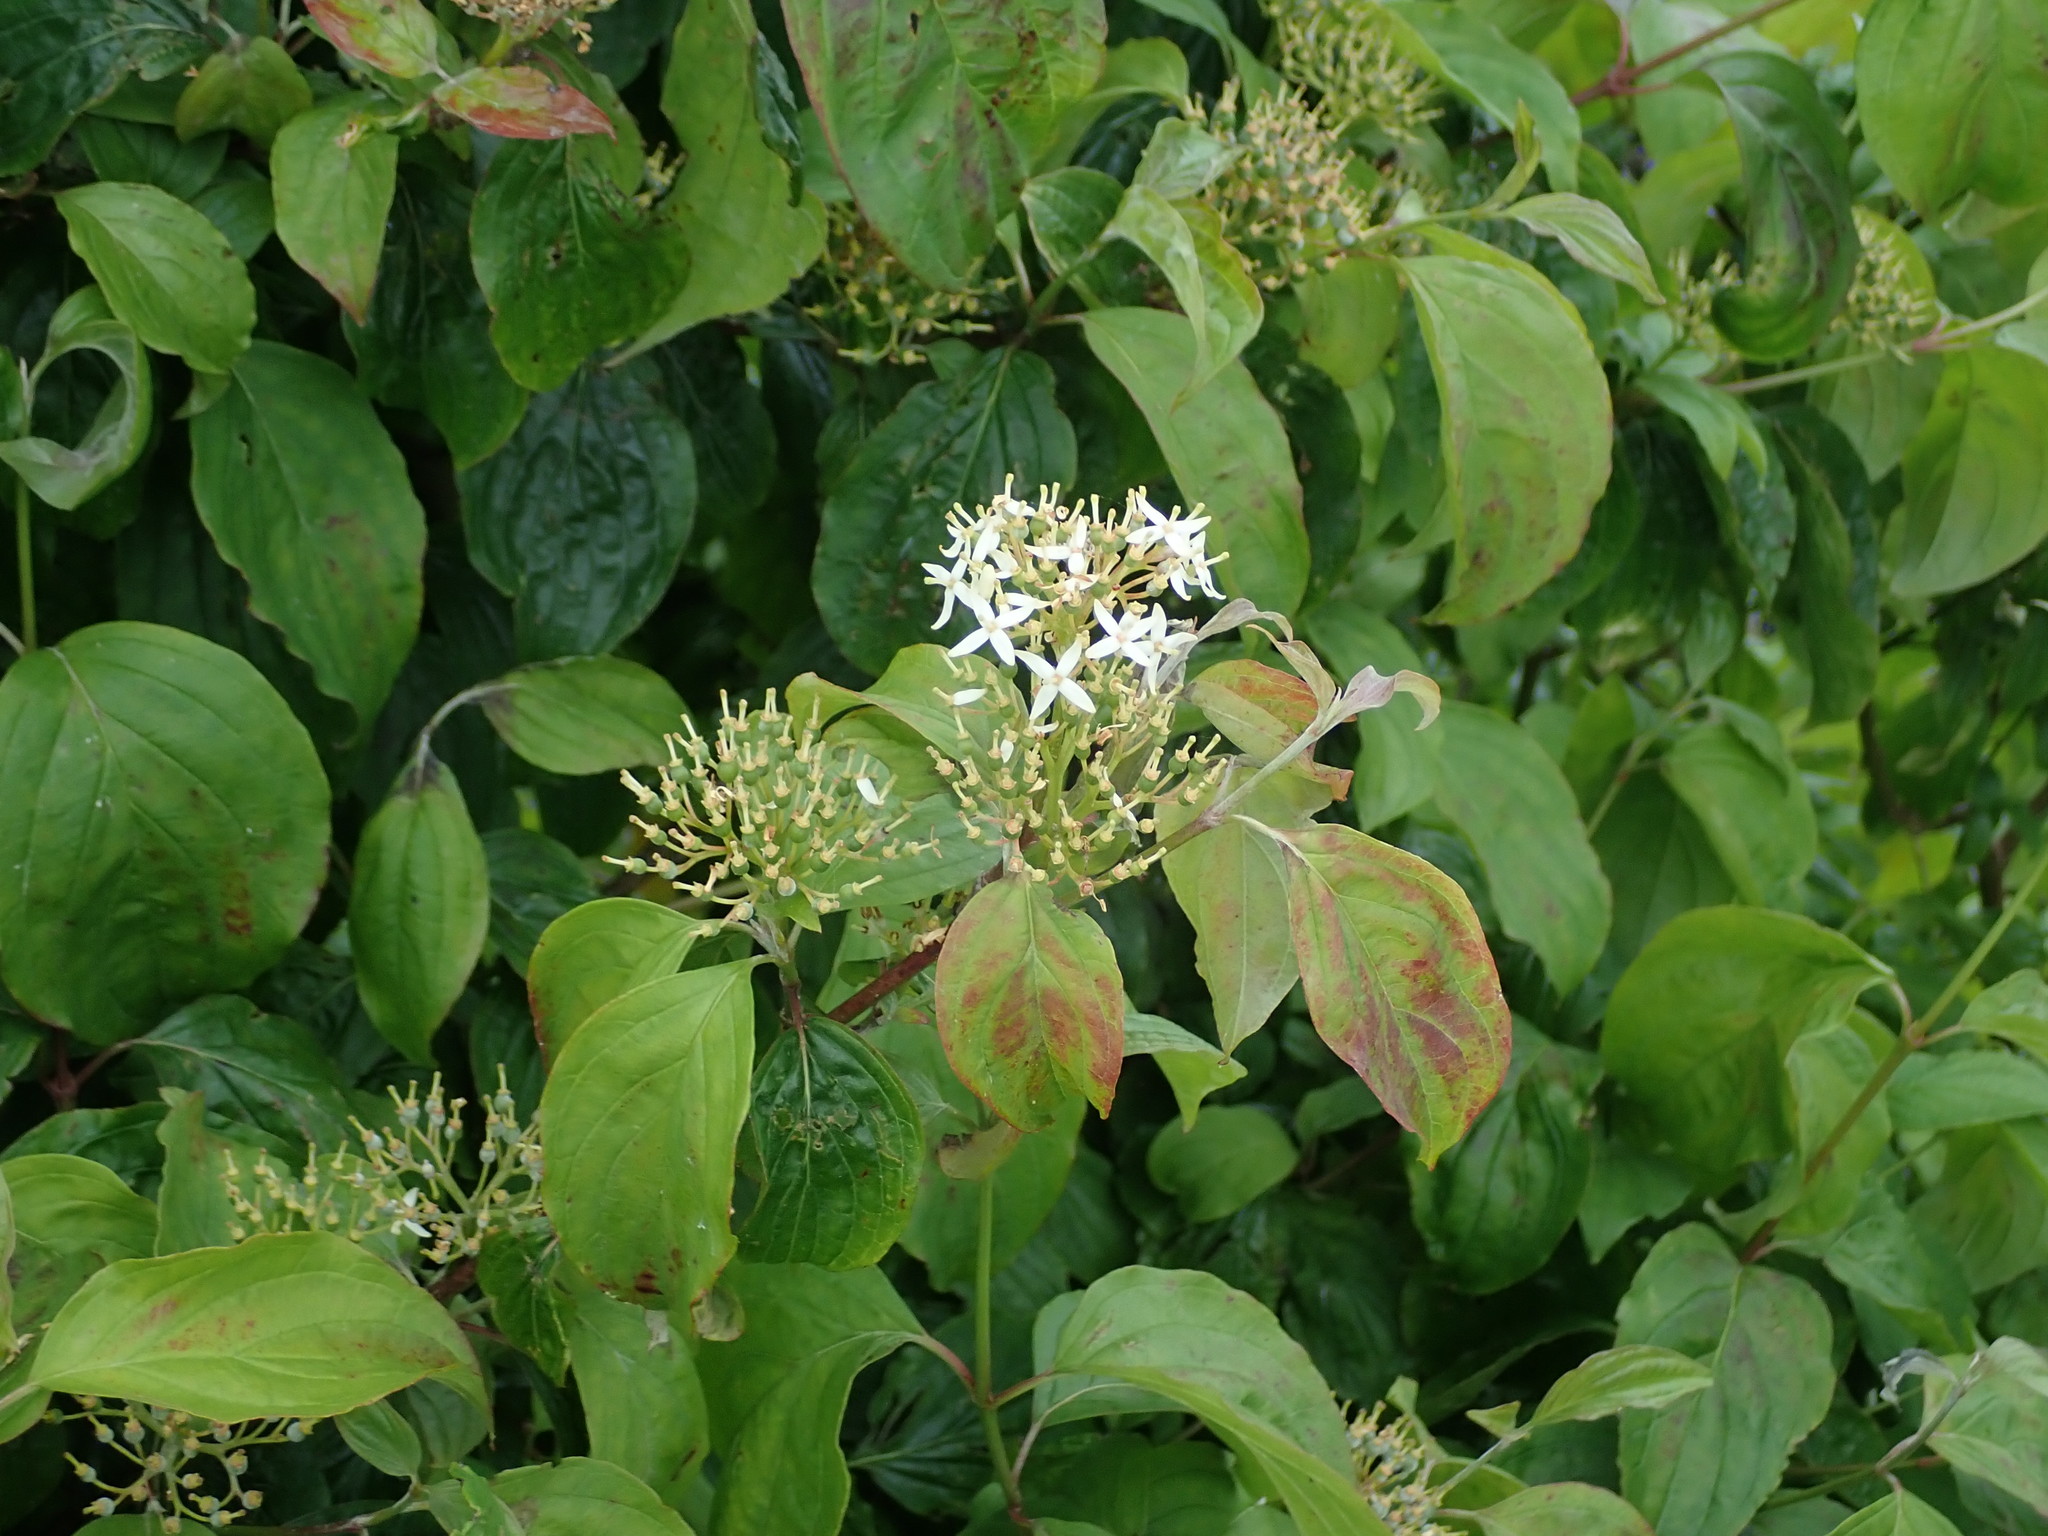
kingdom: Plantae
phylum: Tracheophyta
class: Magnoliopsida
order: Cornales
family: Cornaceae
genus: Cornus
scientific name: Cornus sanguinea
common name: Dogwood
